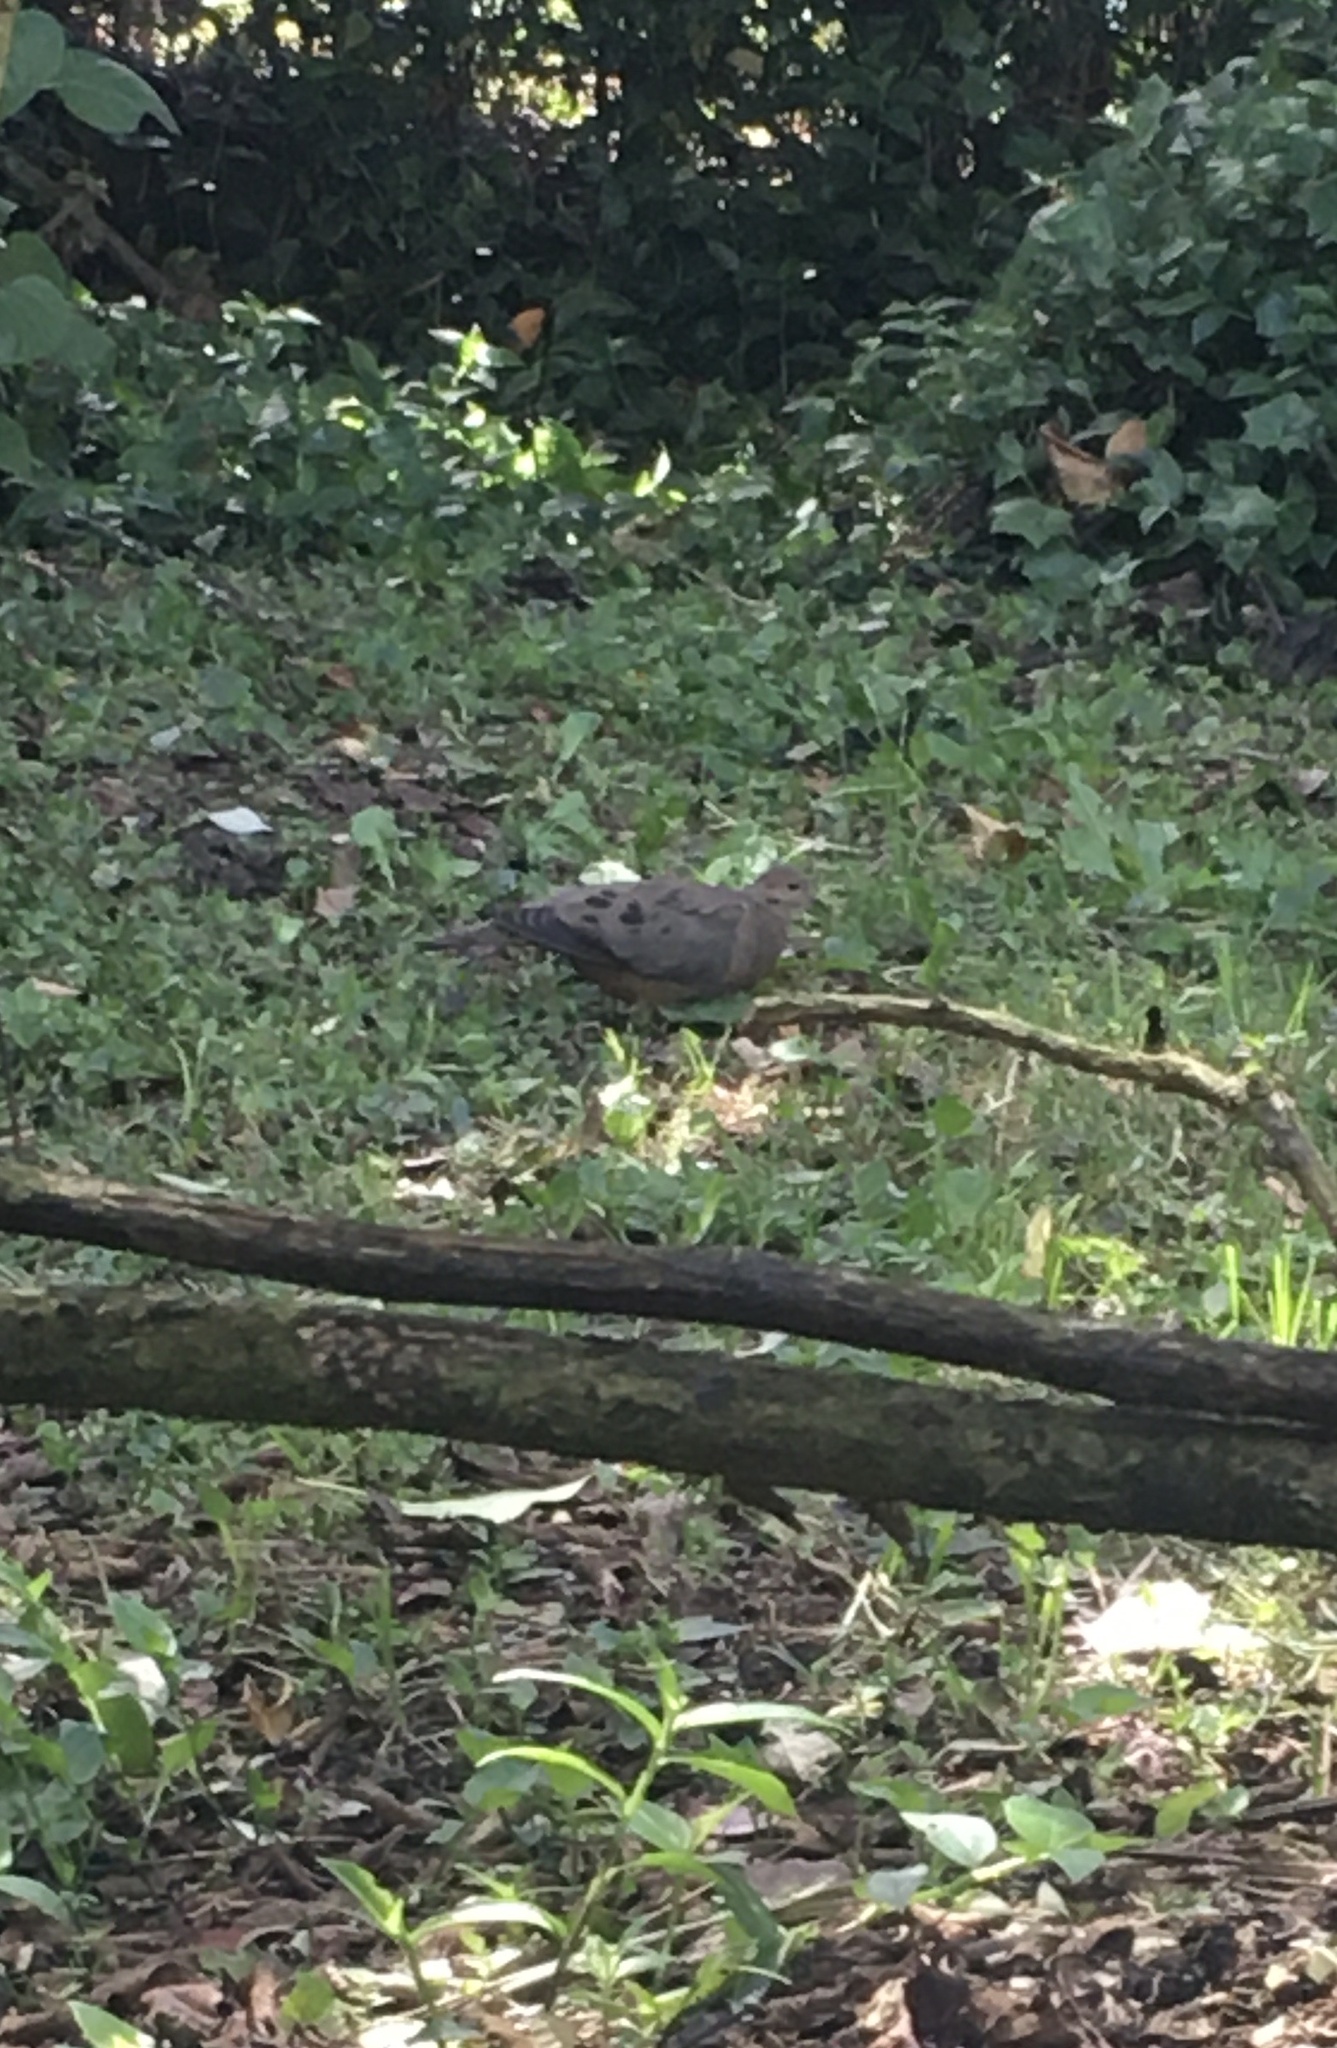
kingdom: Animalia
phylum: Chordata
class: Aves
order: Columbiformes
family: Columbidae
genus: Zenaida
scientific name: Zenaida auriculata
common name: Eared dove
